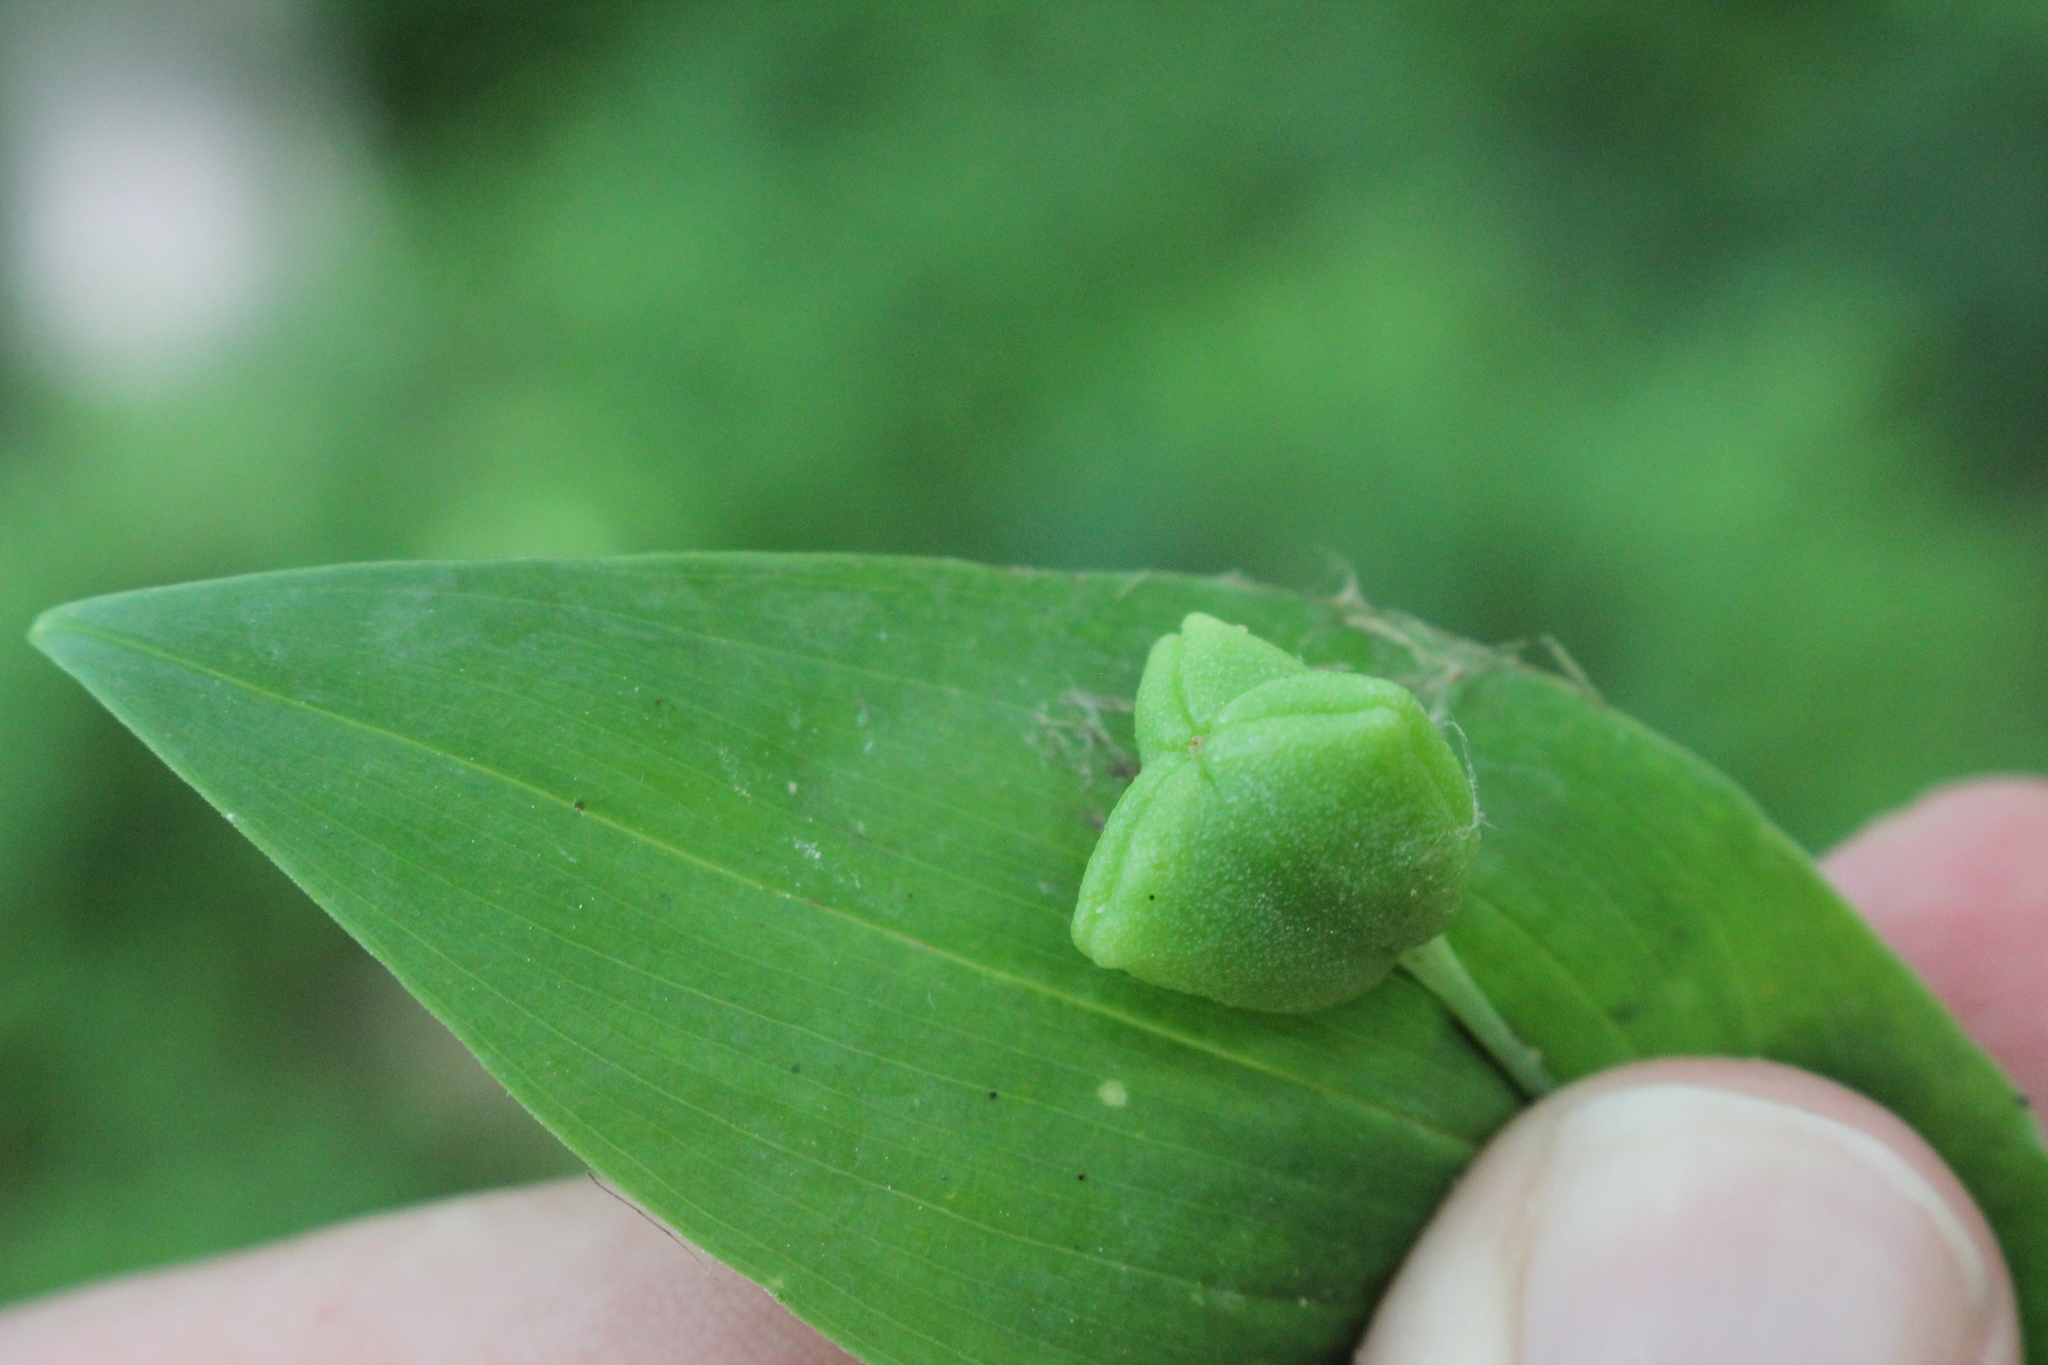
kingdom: Plantae
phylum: Tracheophyta
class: Liliopsida
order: Liliales
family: Colchicaceae
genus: Uvularia
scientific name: Uvularia grandiflora
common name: Bellwort
